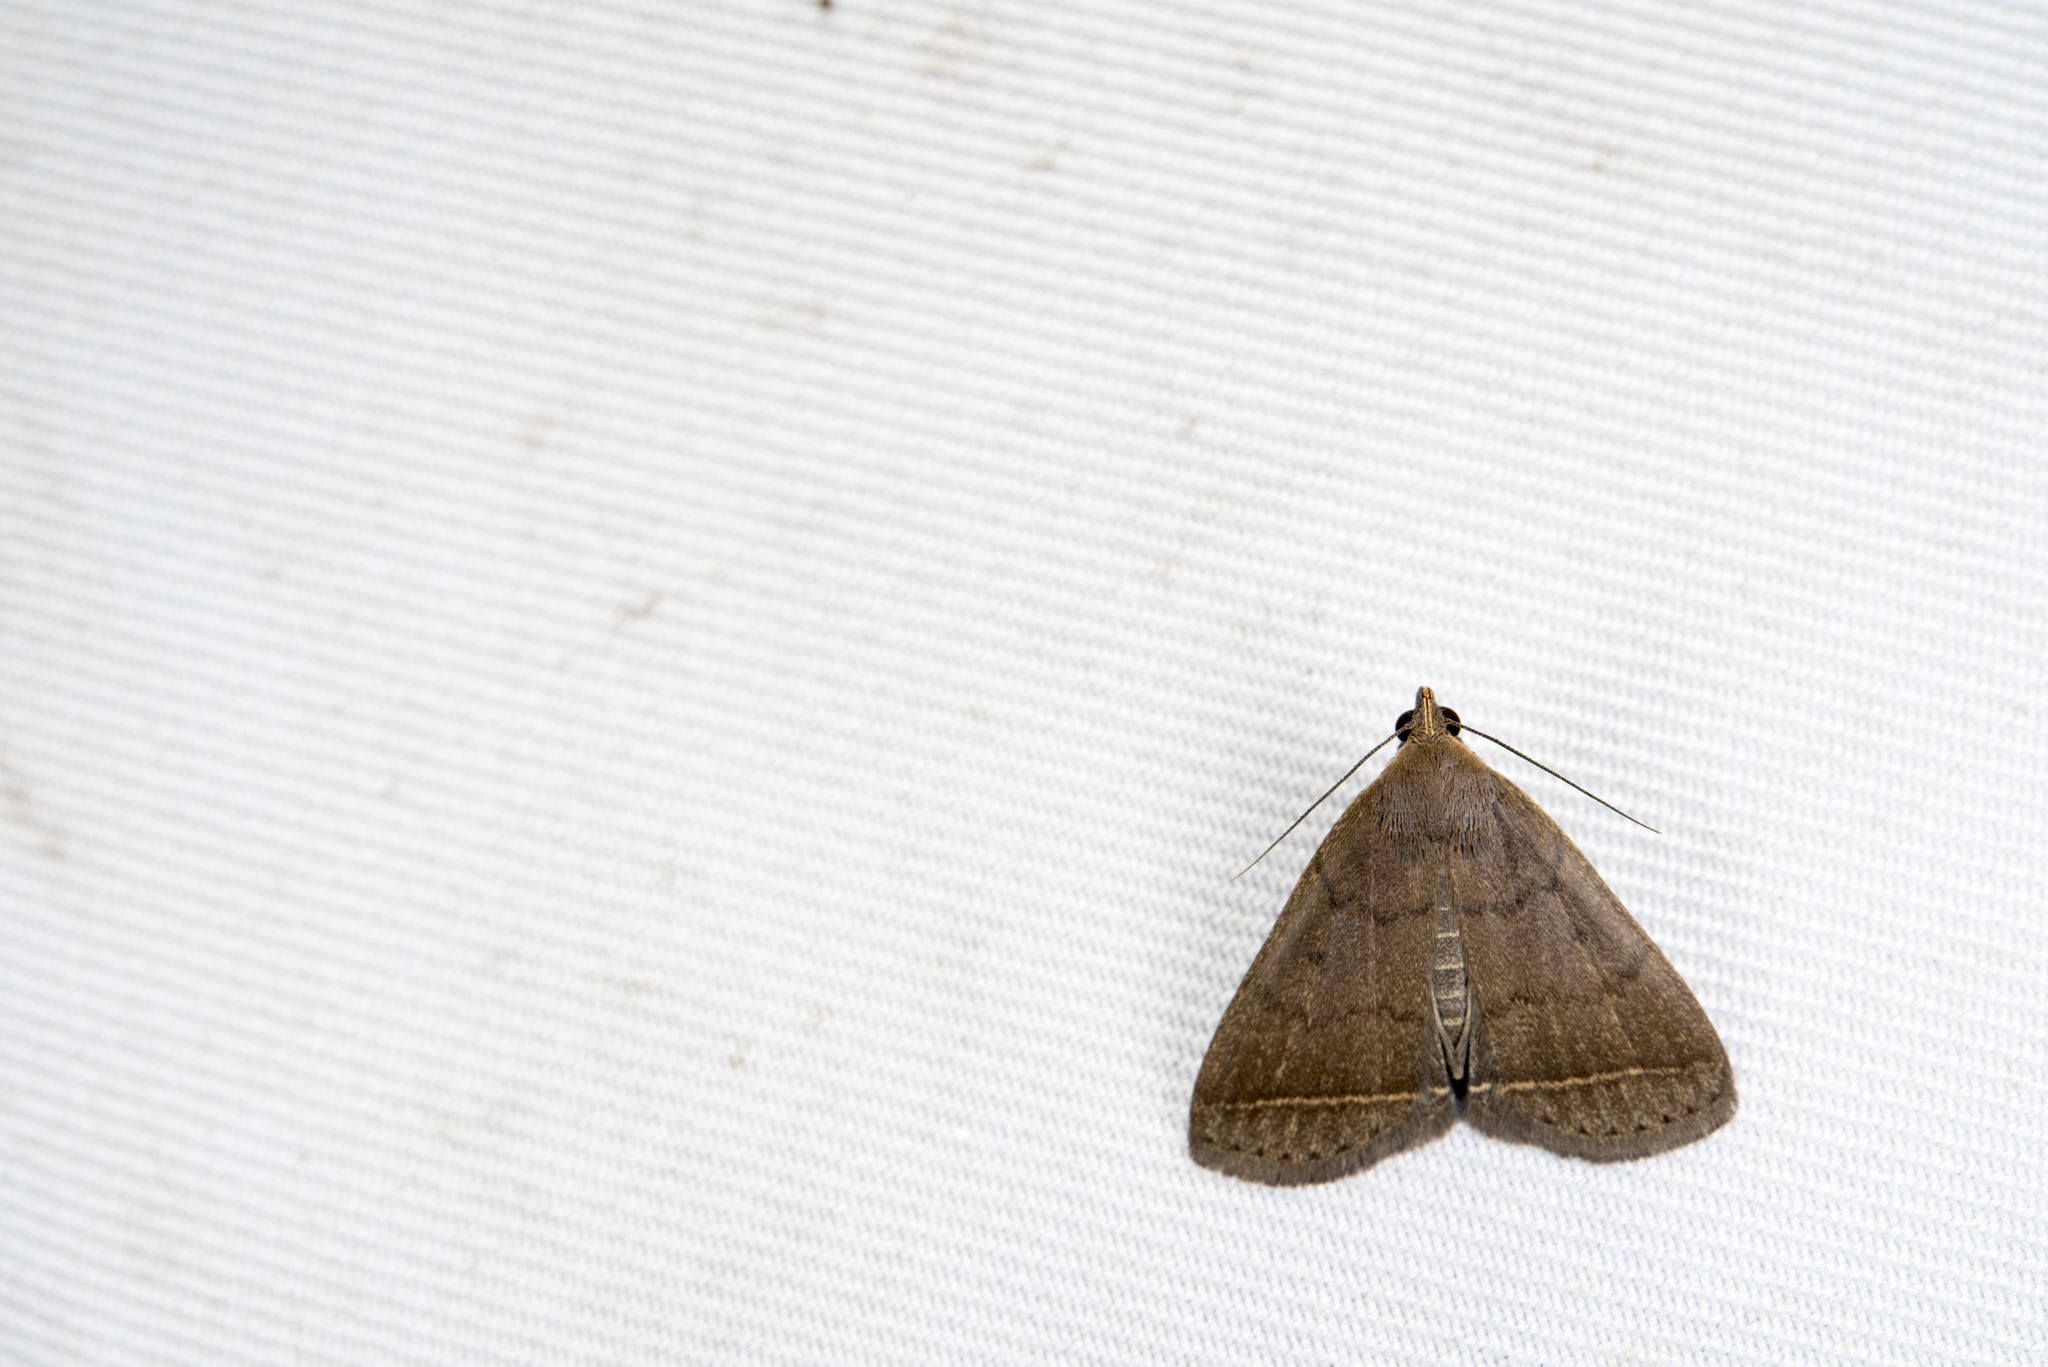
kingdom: Animalia
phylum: Arthropoda
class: Insecta
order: Lepidoptera
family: Erebidae
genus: Simplicia
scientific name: Simplicia simplicissima
